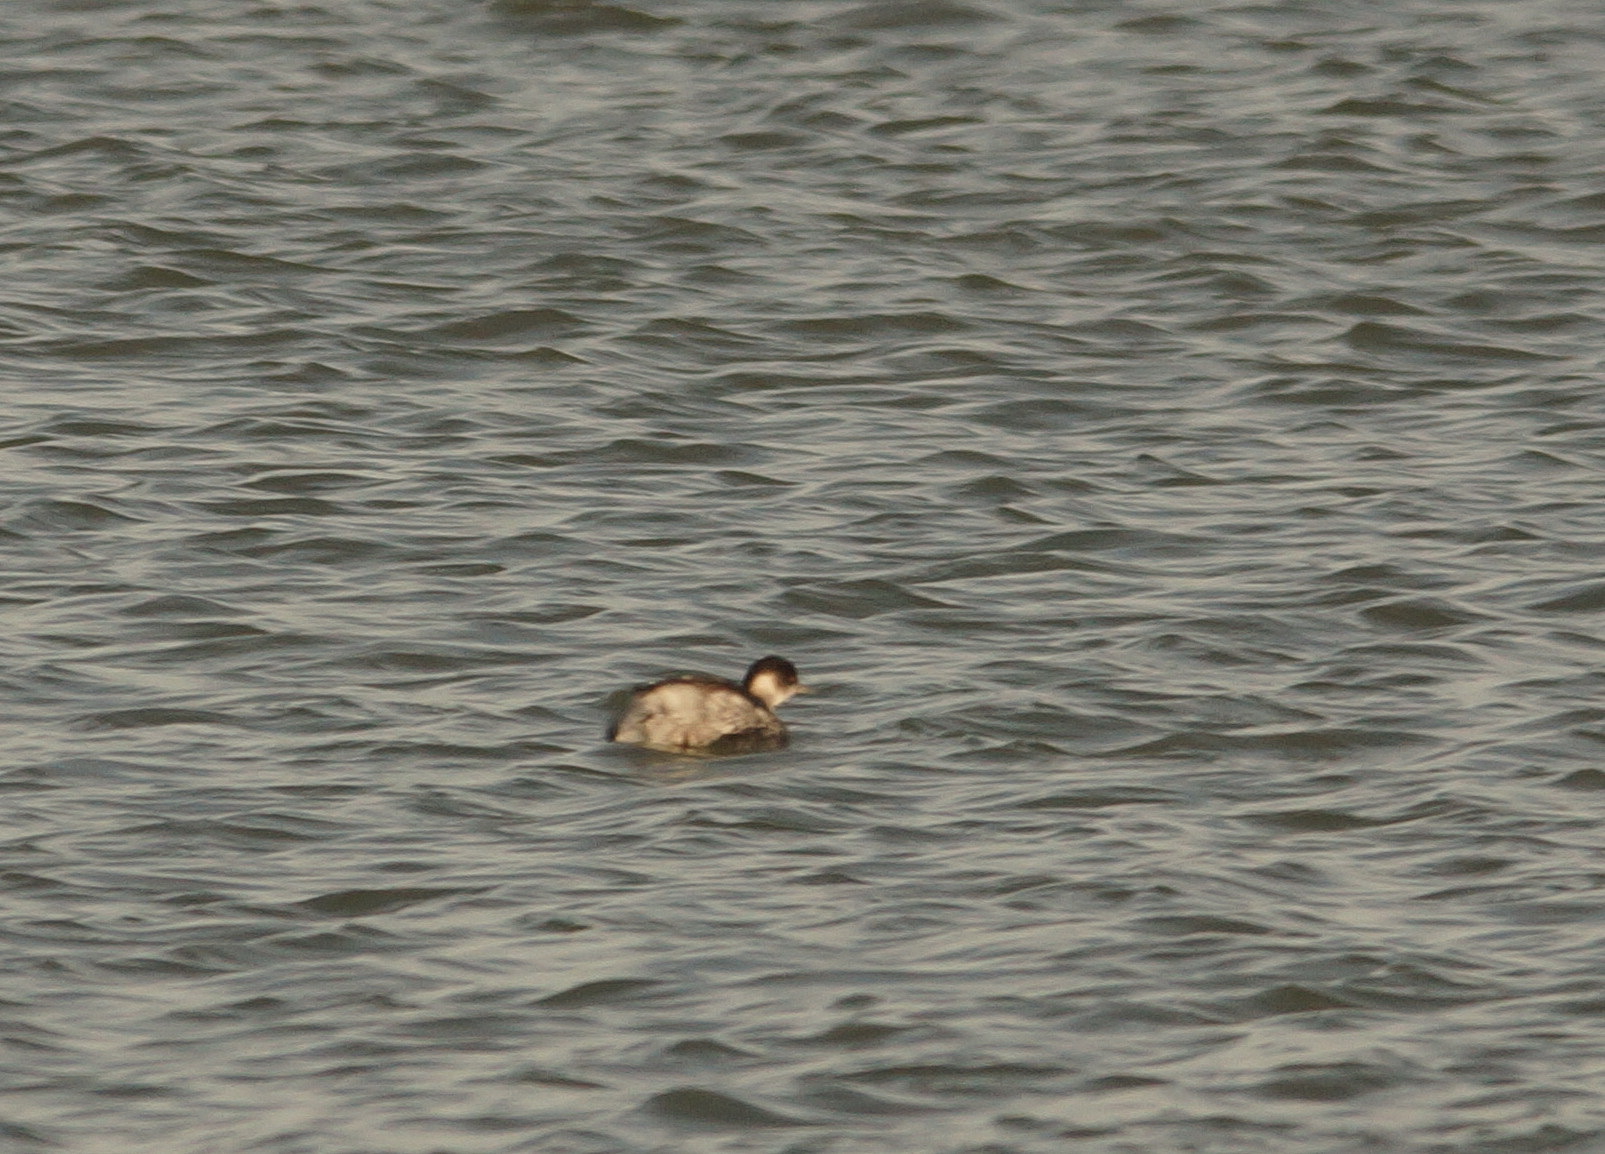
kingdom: Animalia
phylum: Chordata
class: Aves
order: Podicipediformes
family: Podicipedidae
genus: Podiceps
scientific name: Podiceps nigricollis
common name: Black-necked grebe
